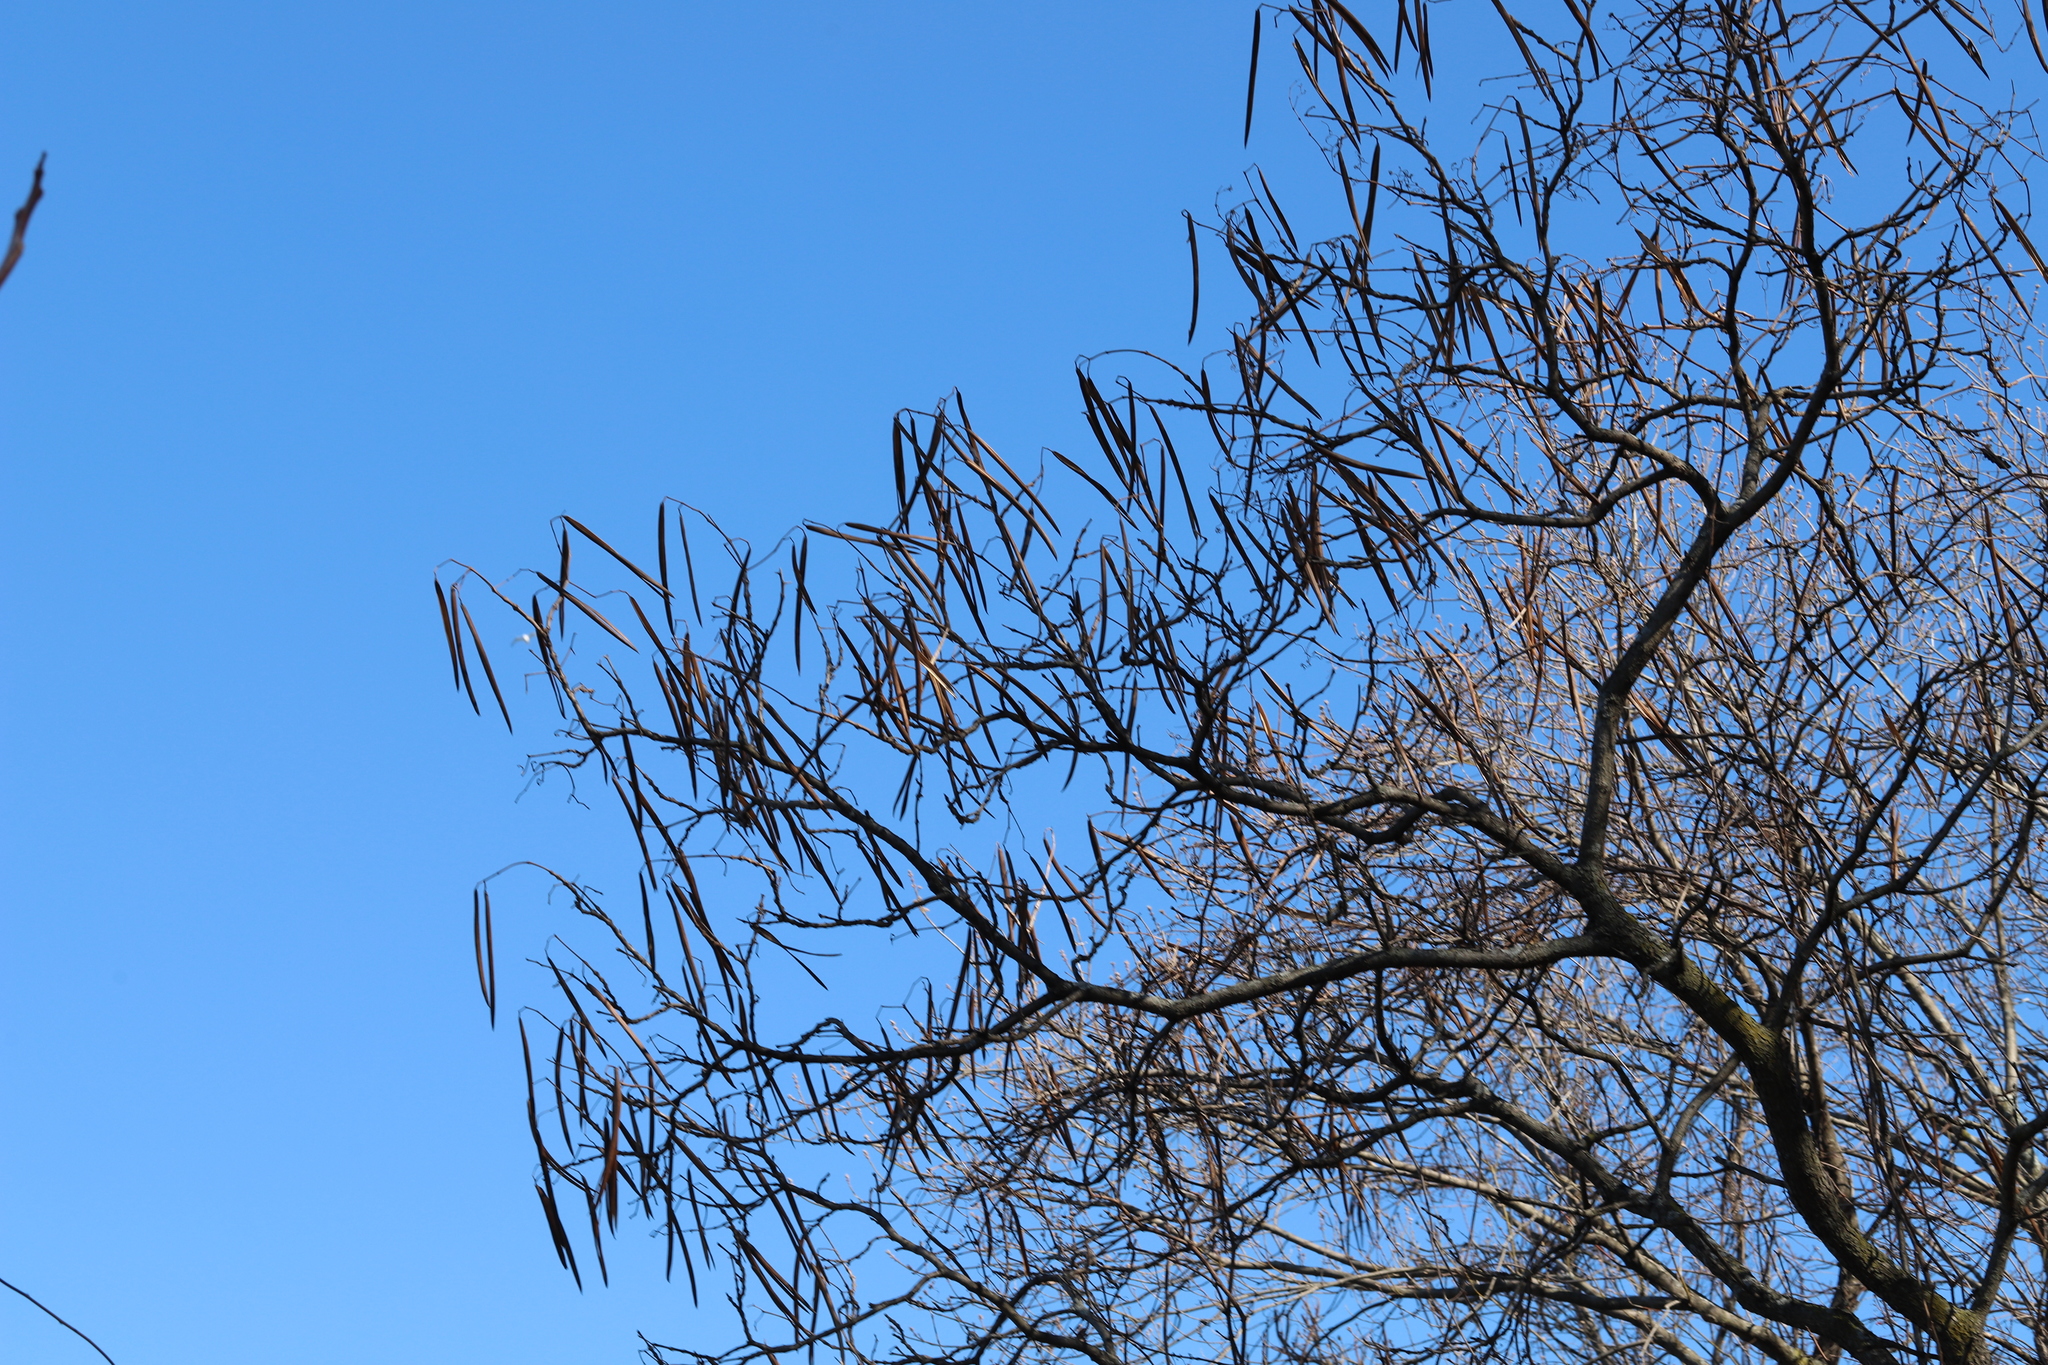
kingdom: Plantae
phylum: Tracheophyta
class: Magnoliopsida
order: Lamiales
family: Bignoniaceae
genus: Catalpa
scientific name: Catalpa
